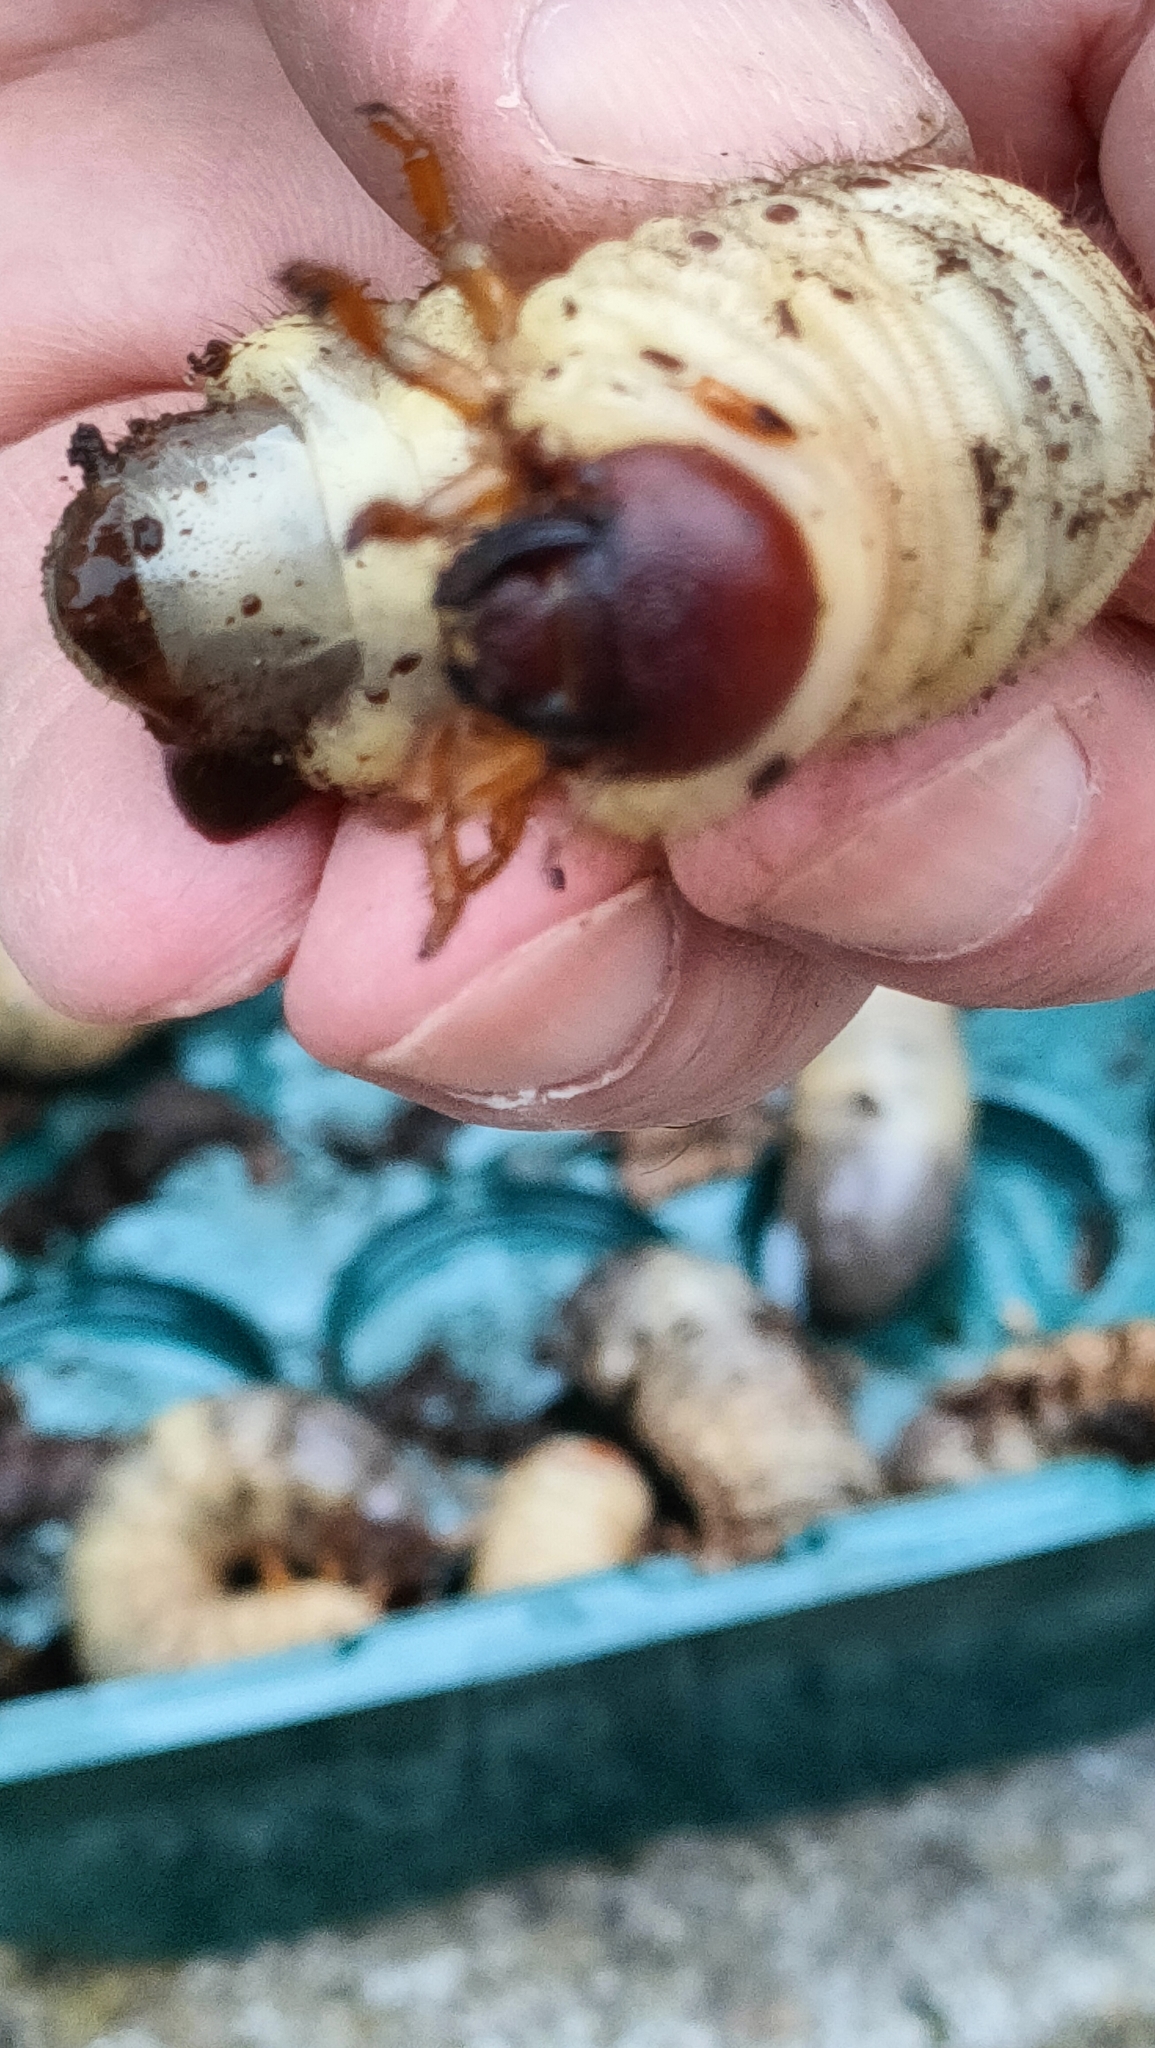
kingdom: Animalia
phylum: Arthropoda
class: Insecta
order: Coleoptera
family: Scarabaeidae
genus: Oryctes
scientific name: Oryctes nasicornis
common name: European rhinoceros beetle
